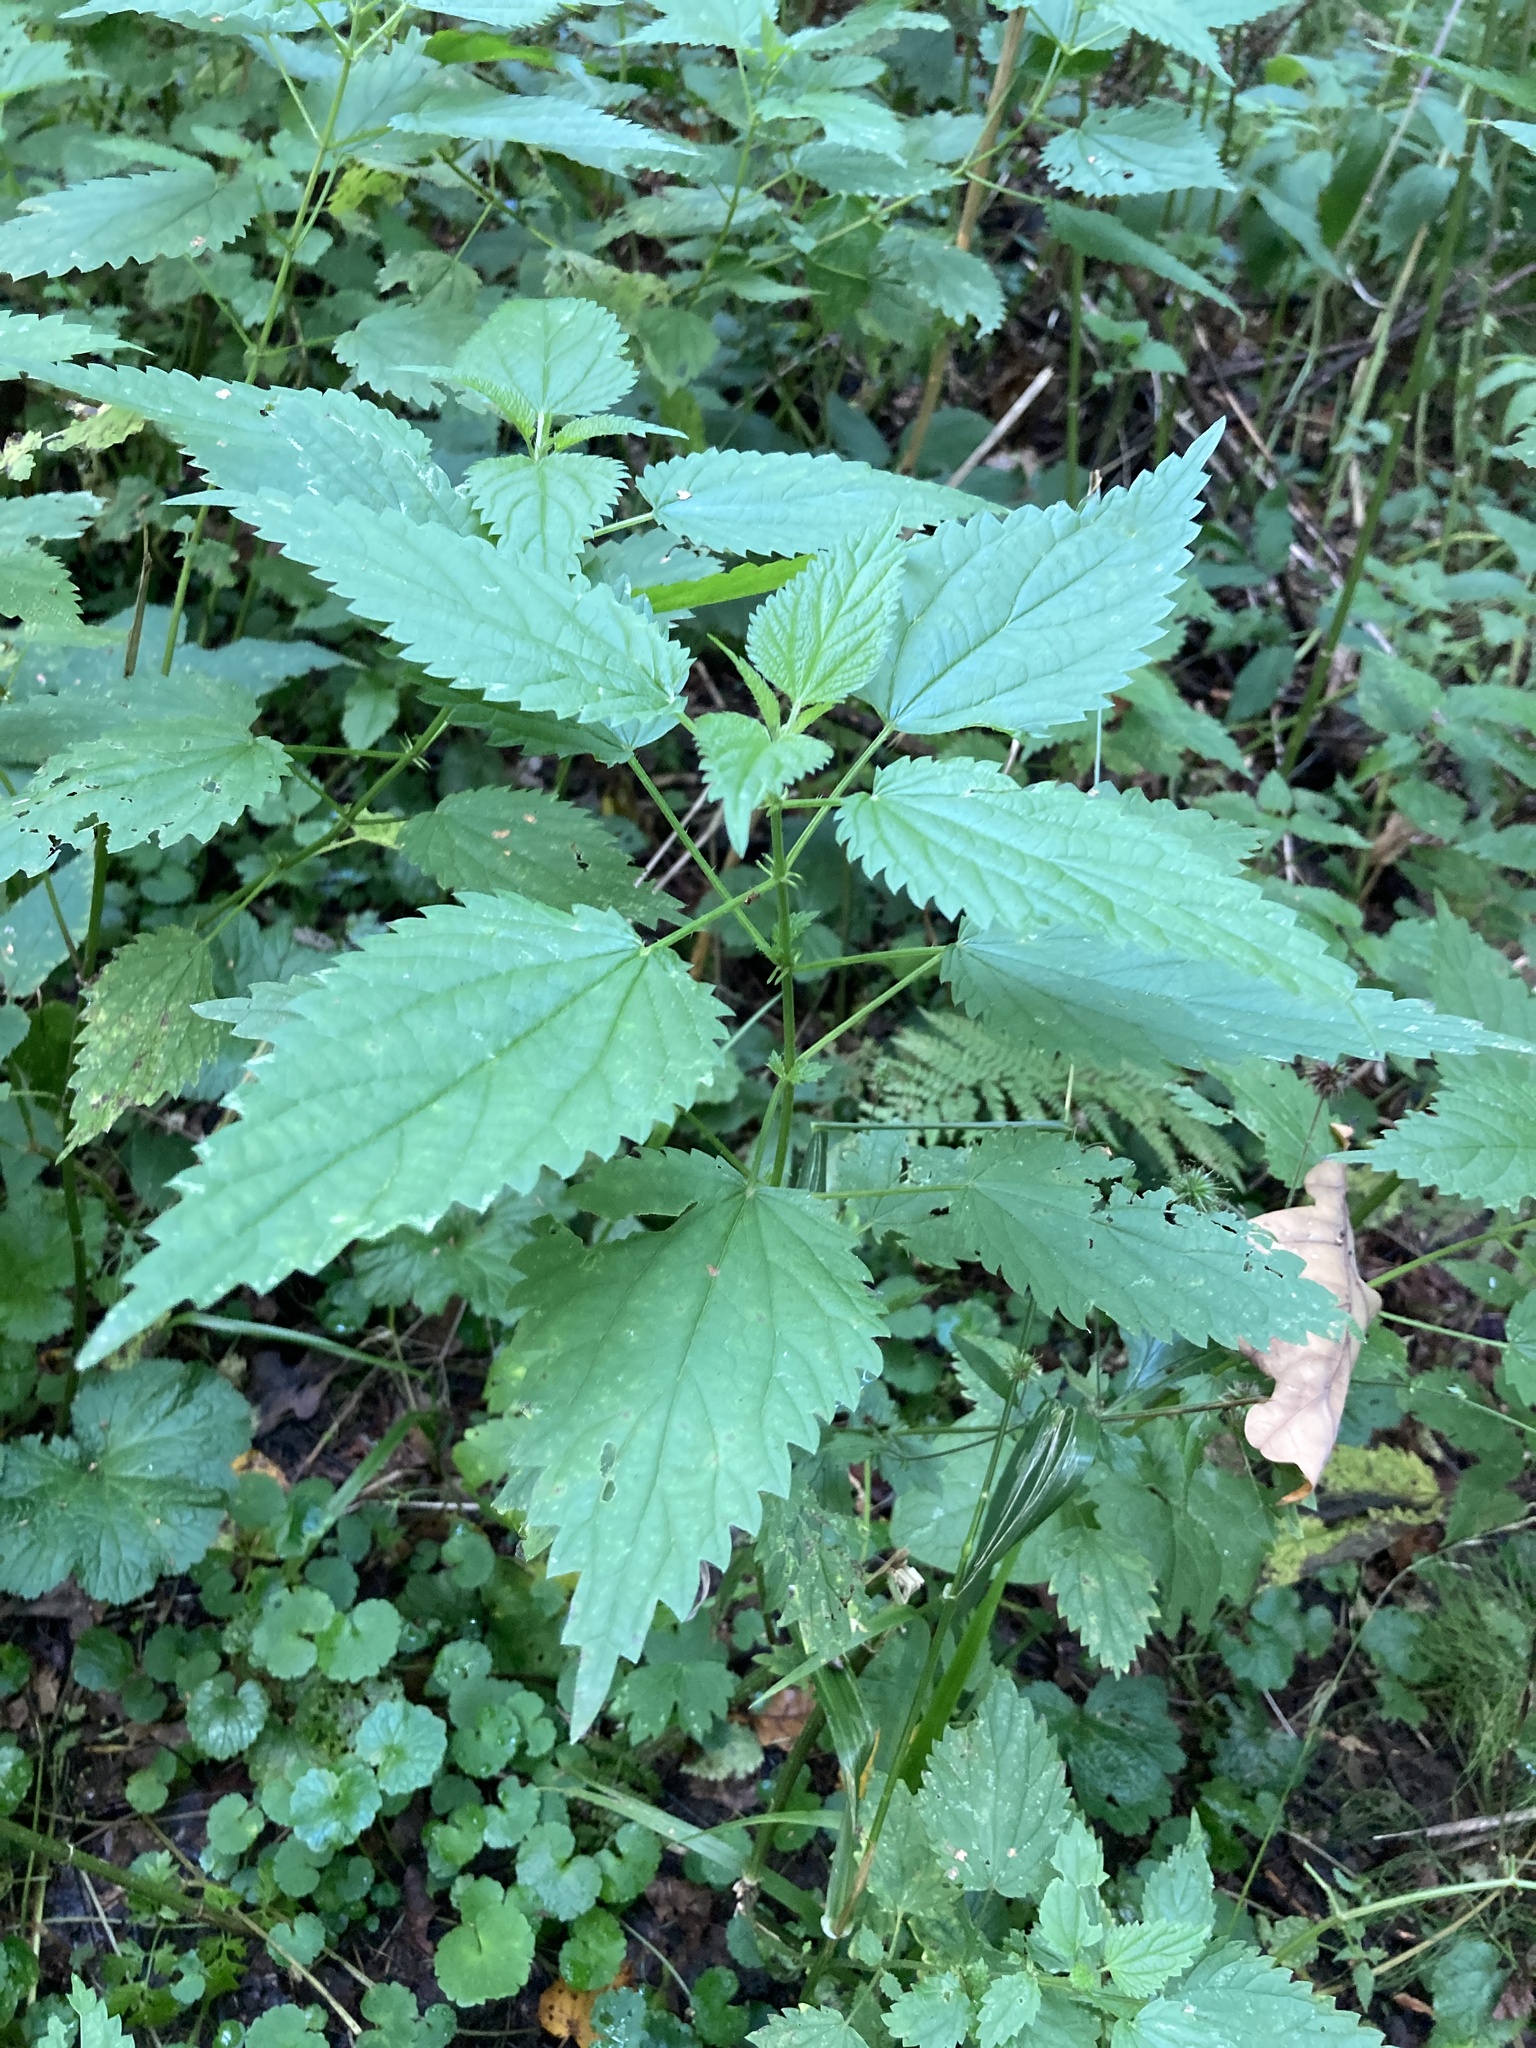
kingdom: Plantae
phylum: Tracheophyta
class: Magnoliopsida
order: Rosales
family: Urticaceae
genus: Urtica
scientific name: Urtica dioica
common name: Common nettle
